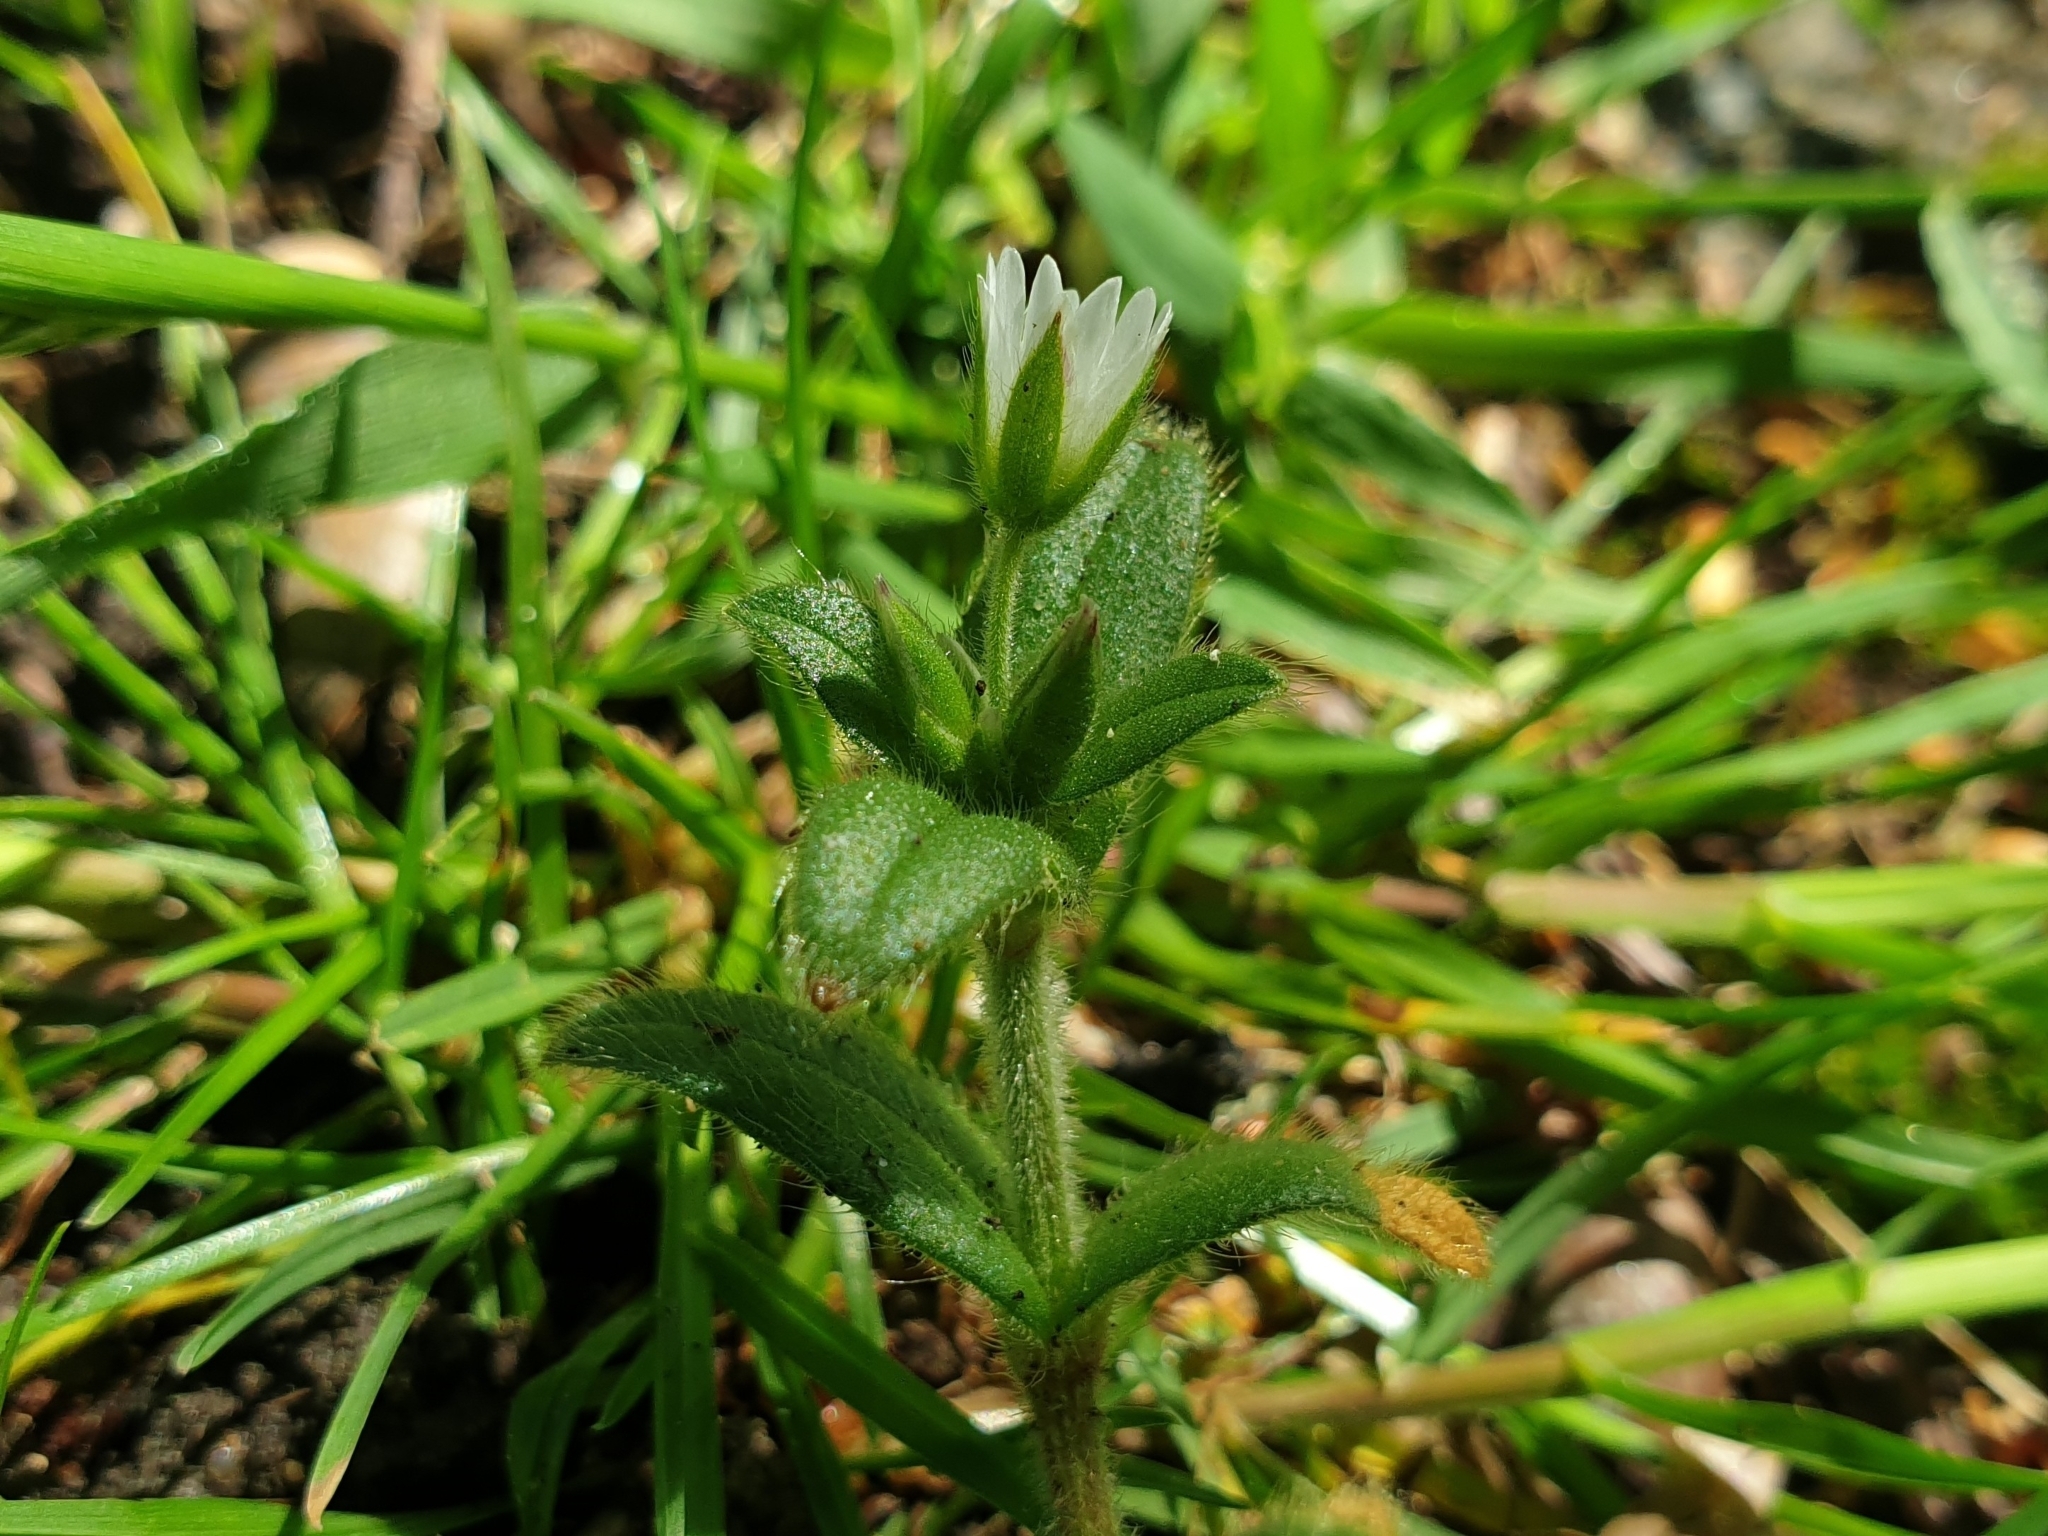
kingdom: Plantae
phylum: Tracheophyta
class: Magnoliopsida
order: Caryophyllales
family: Caryophyllaceae
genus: Cerastium
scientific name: Cerastium holosteoides
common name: Big chickweed
